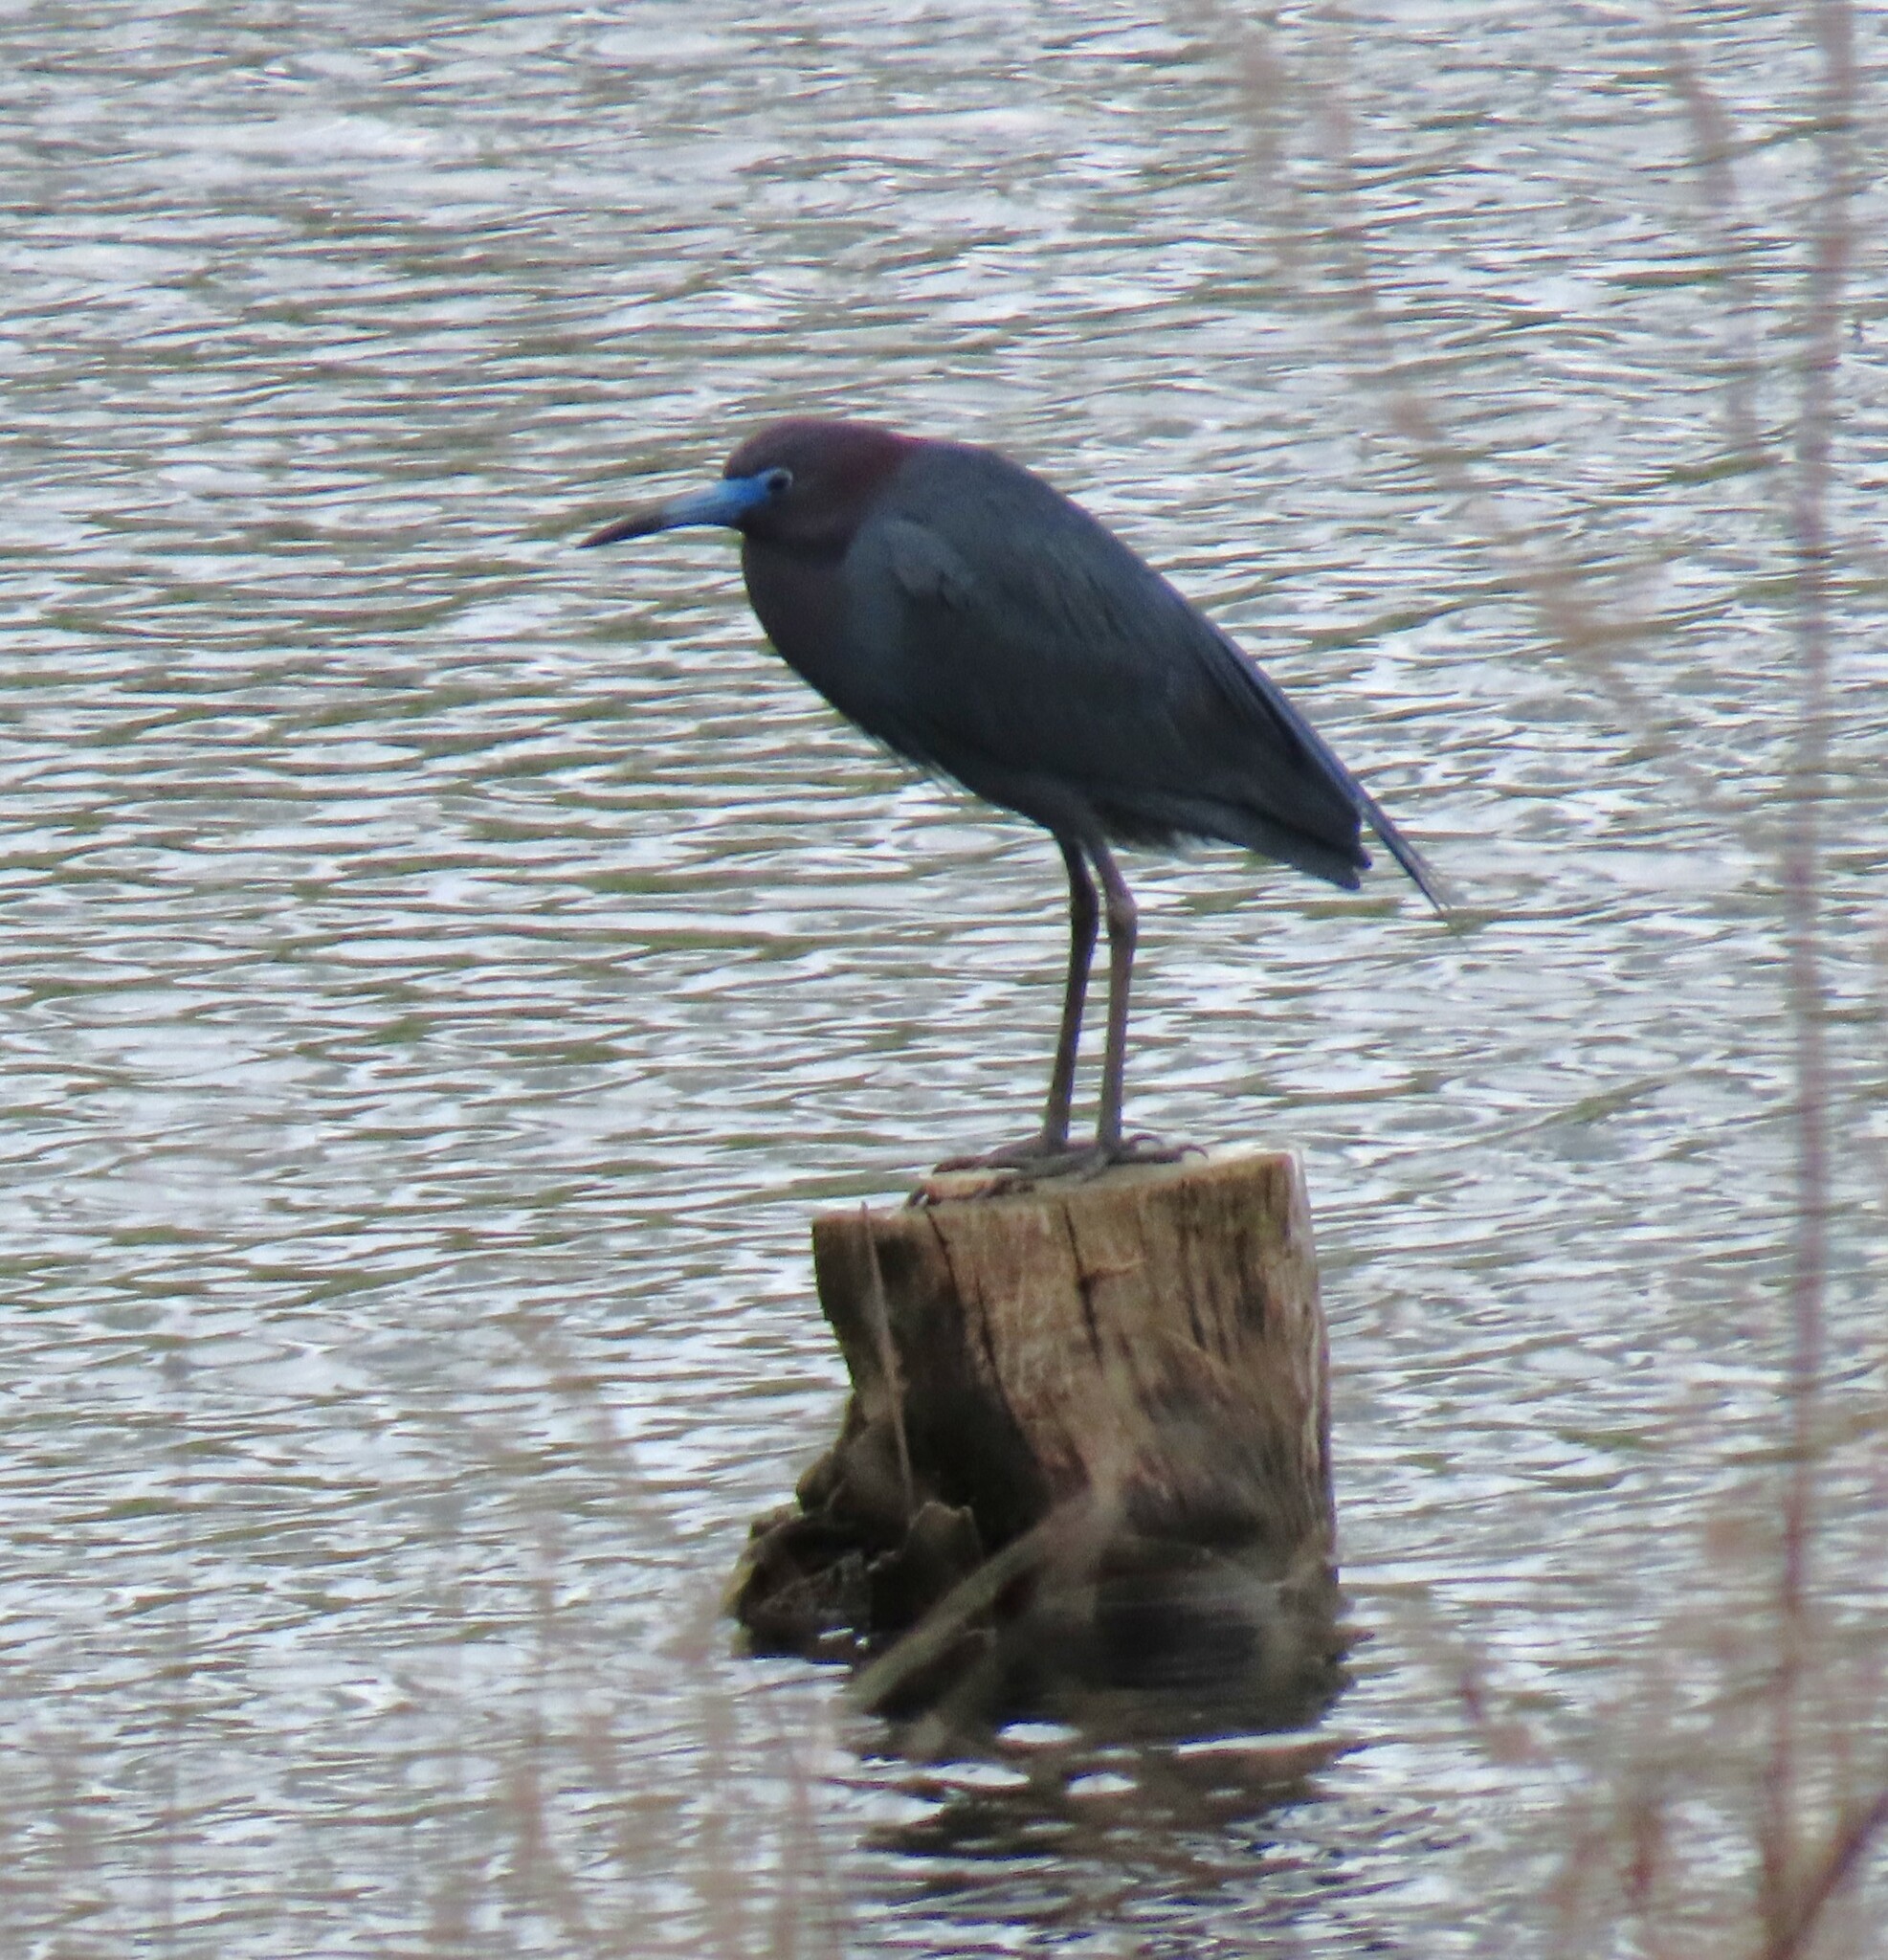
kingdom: Animalia
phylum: Chordata
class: Aves
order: Pelecaniformes
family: Ardeidae
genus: Egretta
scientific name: Egretta caerulea
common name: Little blue heron
